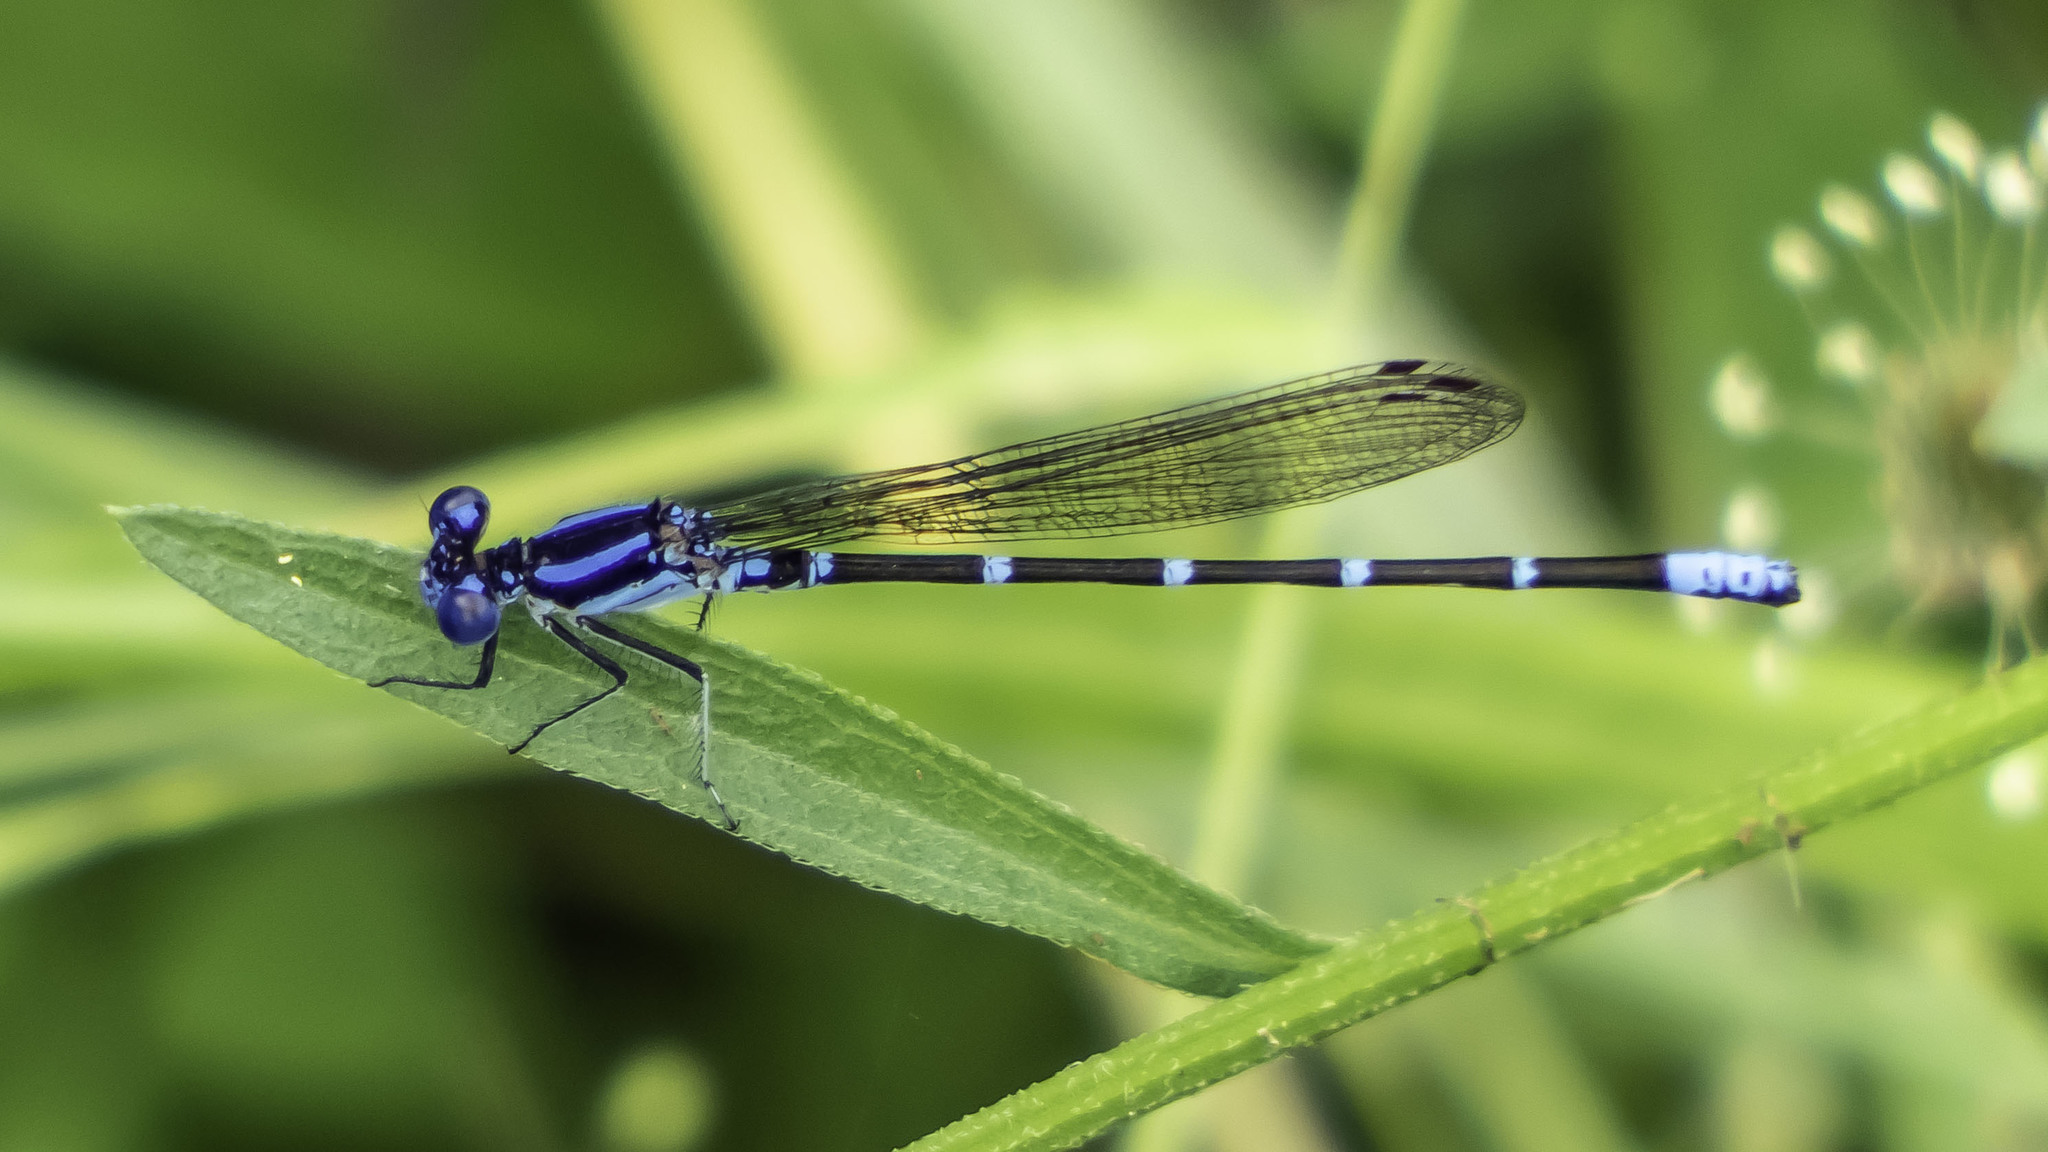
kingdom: Animalia
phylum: Arthropoda
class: Insecta
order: Odonata
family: Coenagrionidae
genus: Argia
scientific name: Argia sedula
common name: Blue-ringed dancer
